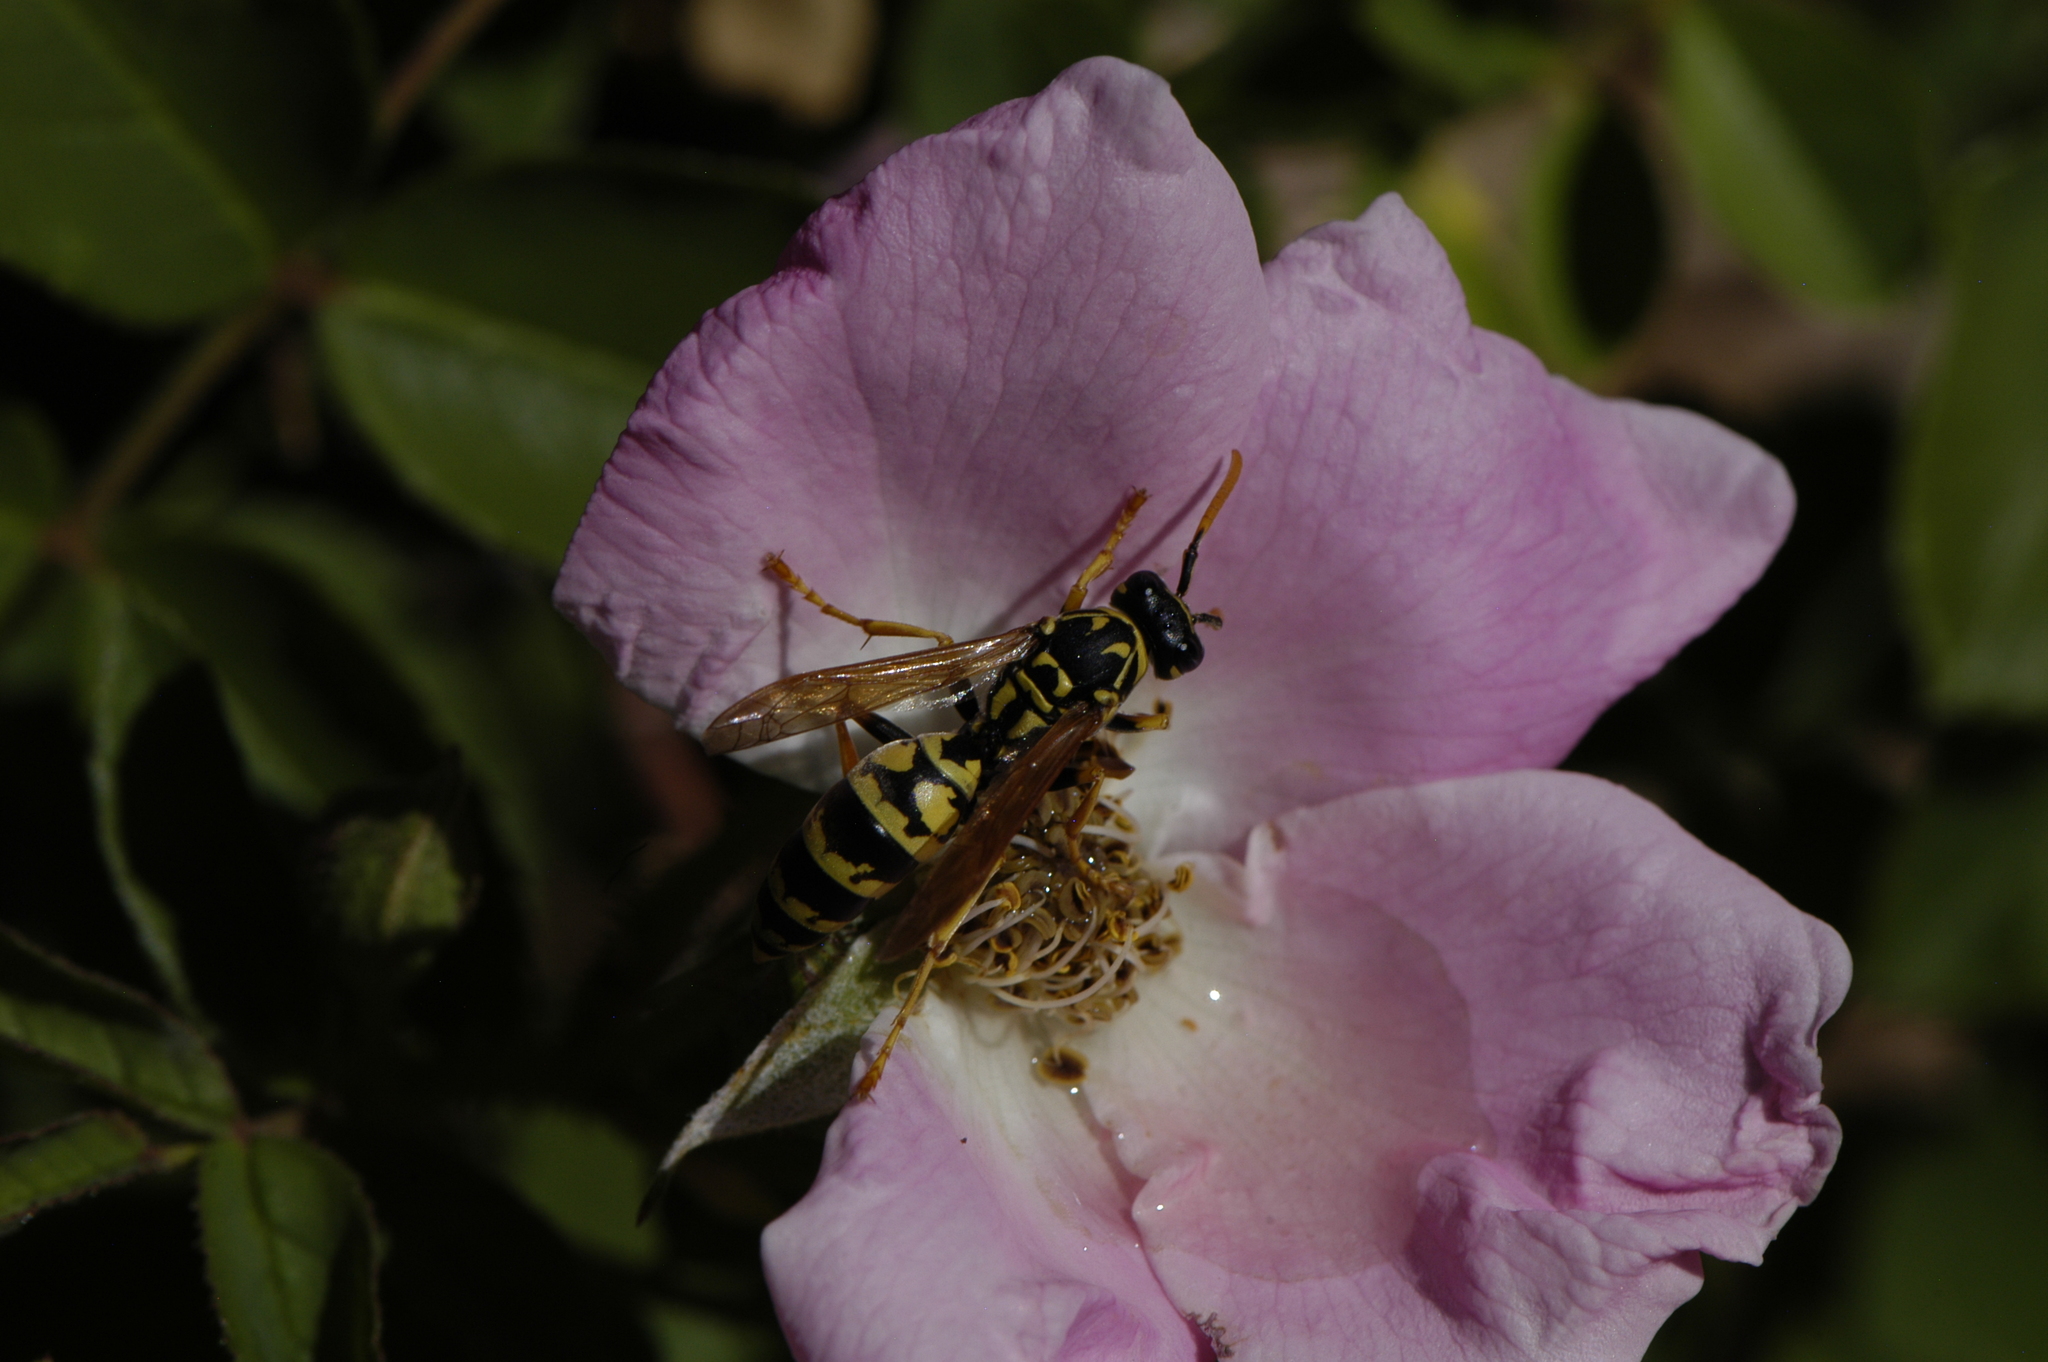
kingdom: Animalia
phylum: Arthropoda
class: Insecta
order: Hymenoptera
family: Eumenidae
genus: Polistes
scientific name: Polistes dominula
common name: Paper wasp
